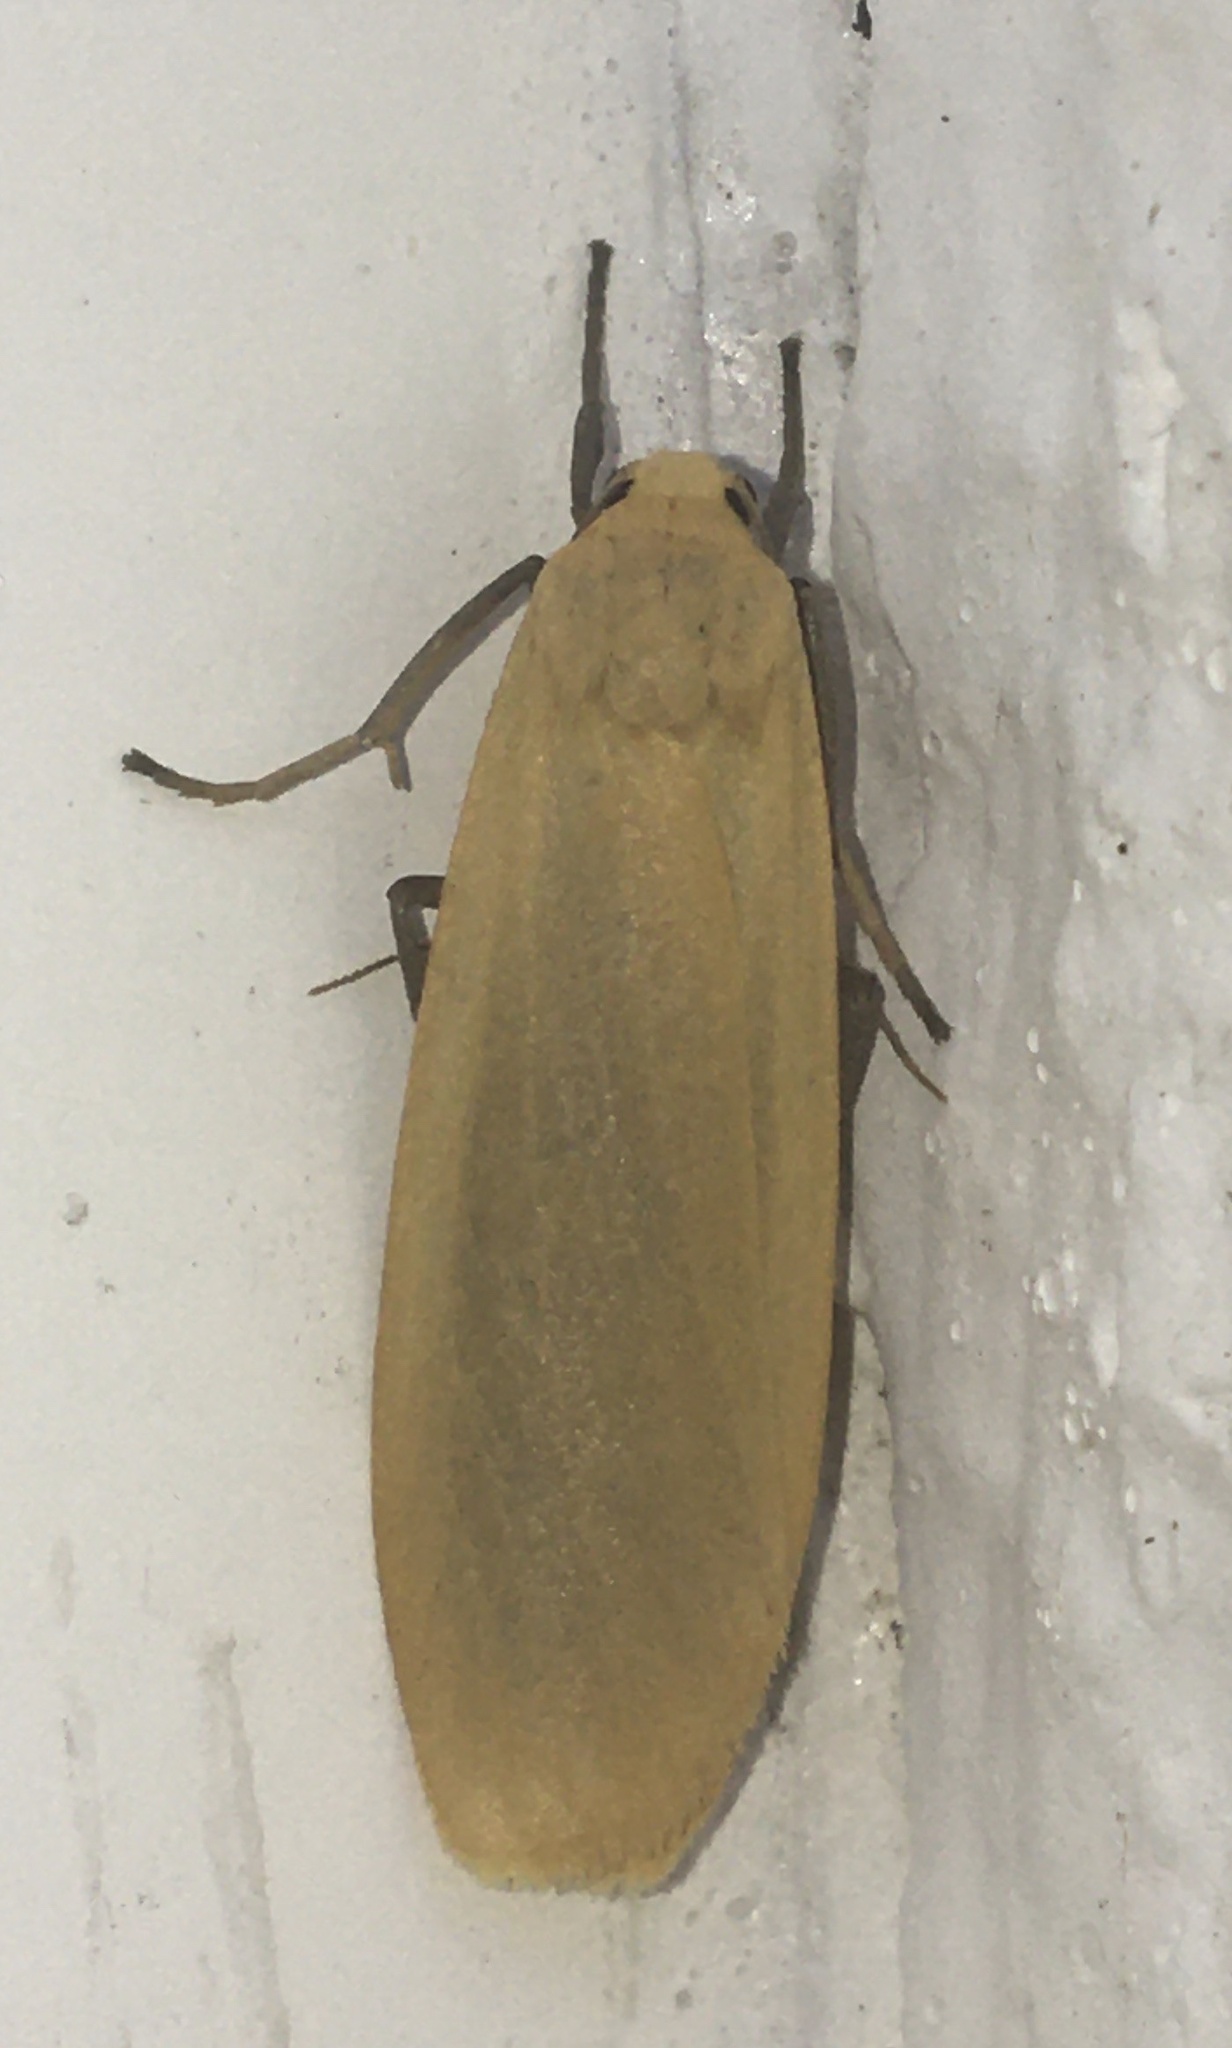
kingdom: Animalia
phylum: Arthropoda
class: Insecta
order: Lepidoptera
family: Erebidae
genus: Wittia
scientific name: Wittia sororcula
